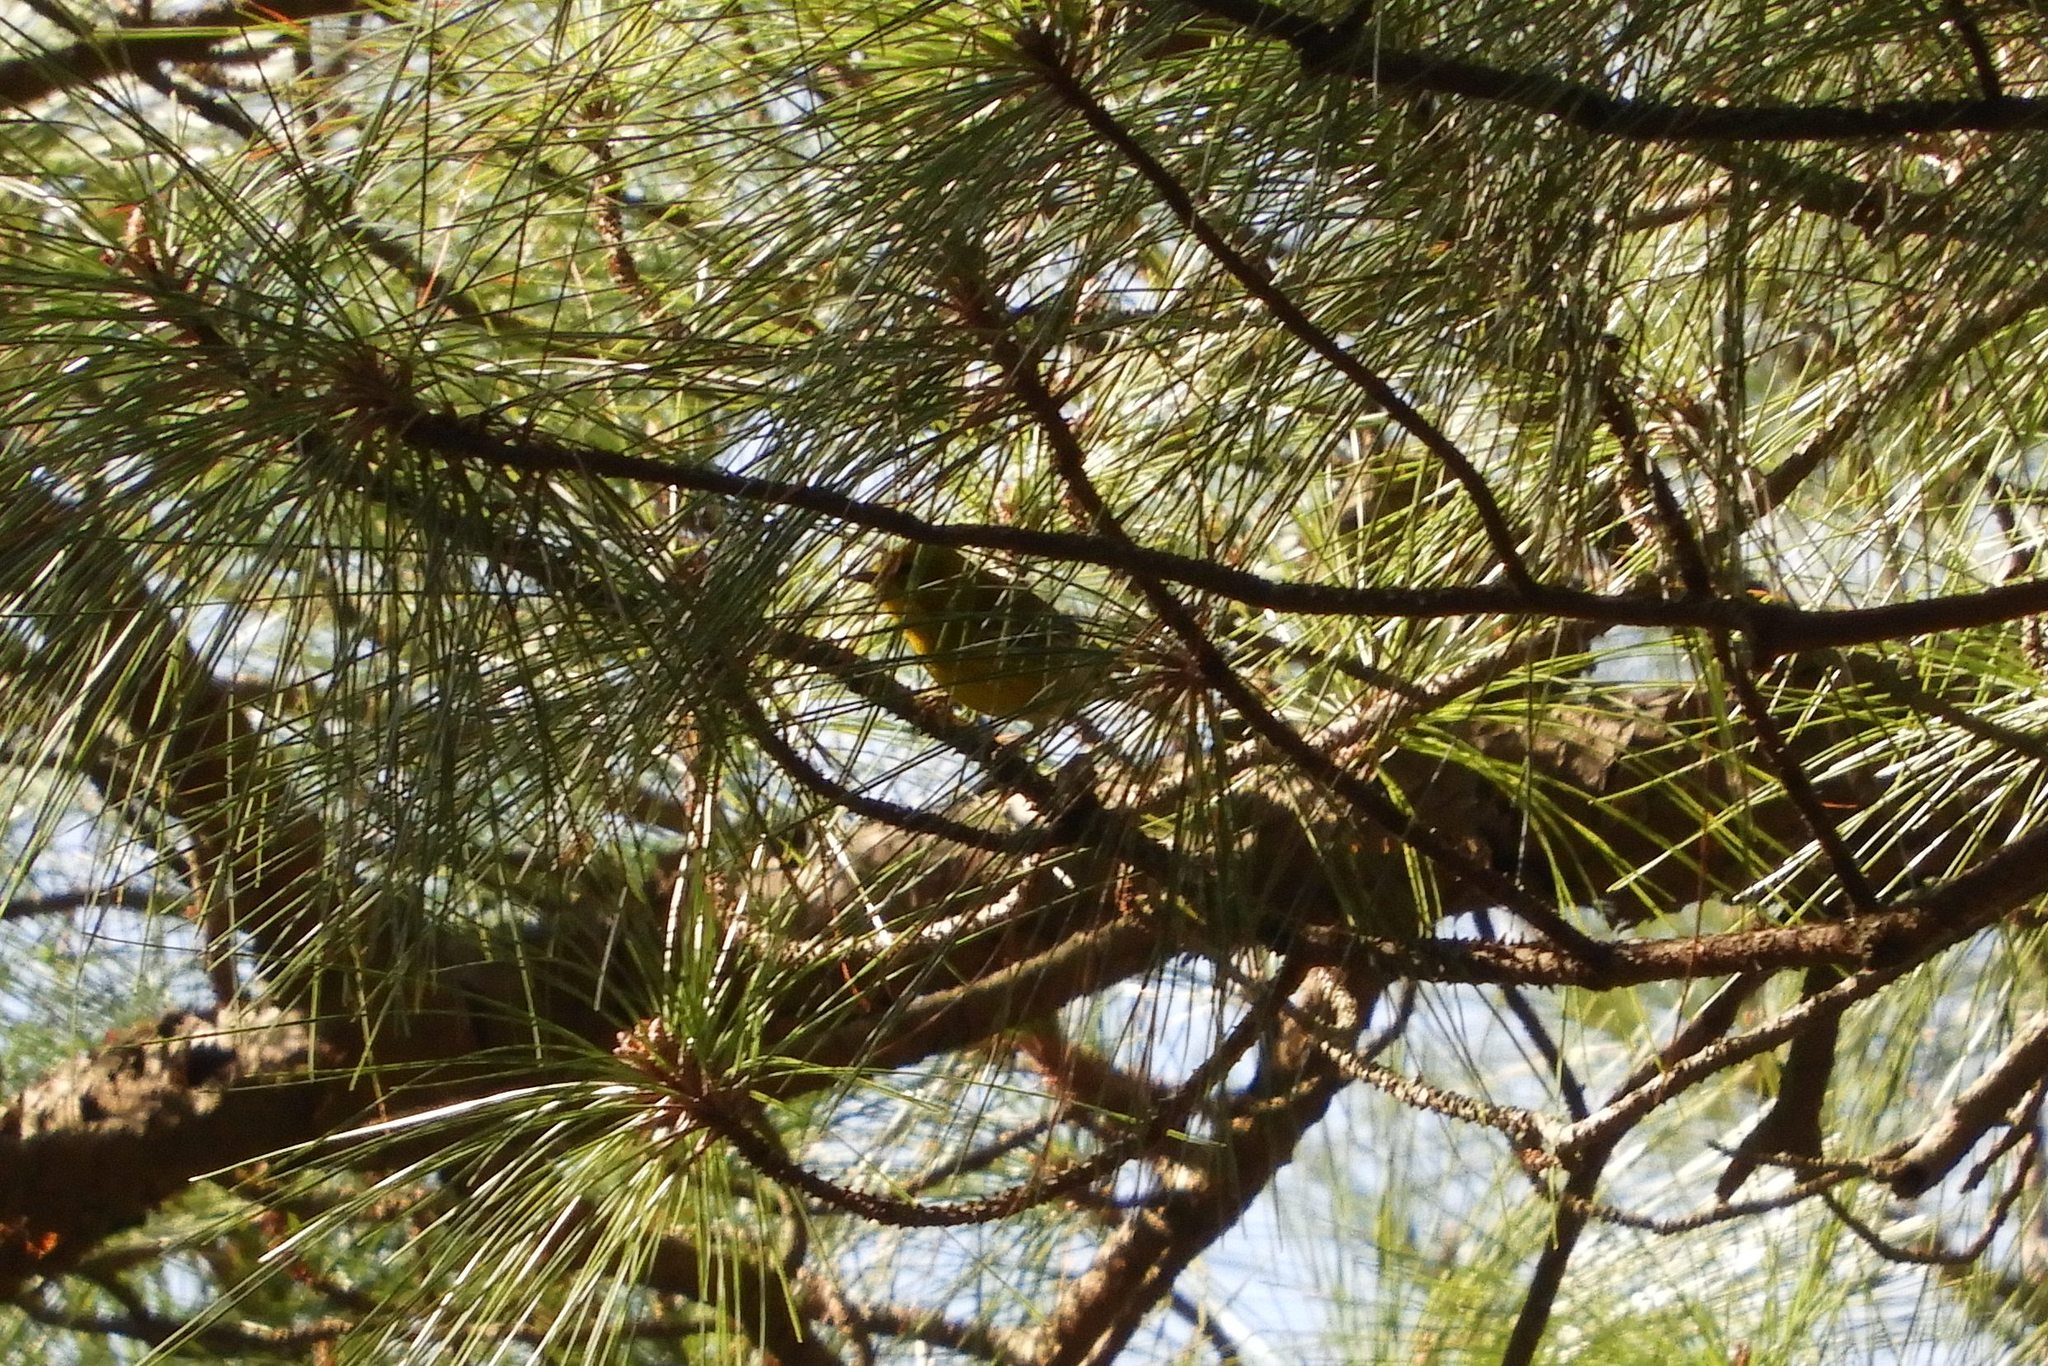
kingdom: Animalia
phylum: Chordata
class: Aves
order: Passeriformes
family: Parulidae
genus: Setophaga
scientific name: Setophaga pinus
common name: Pine warbler
